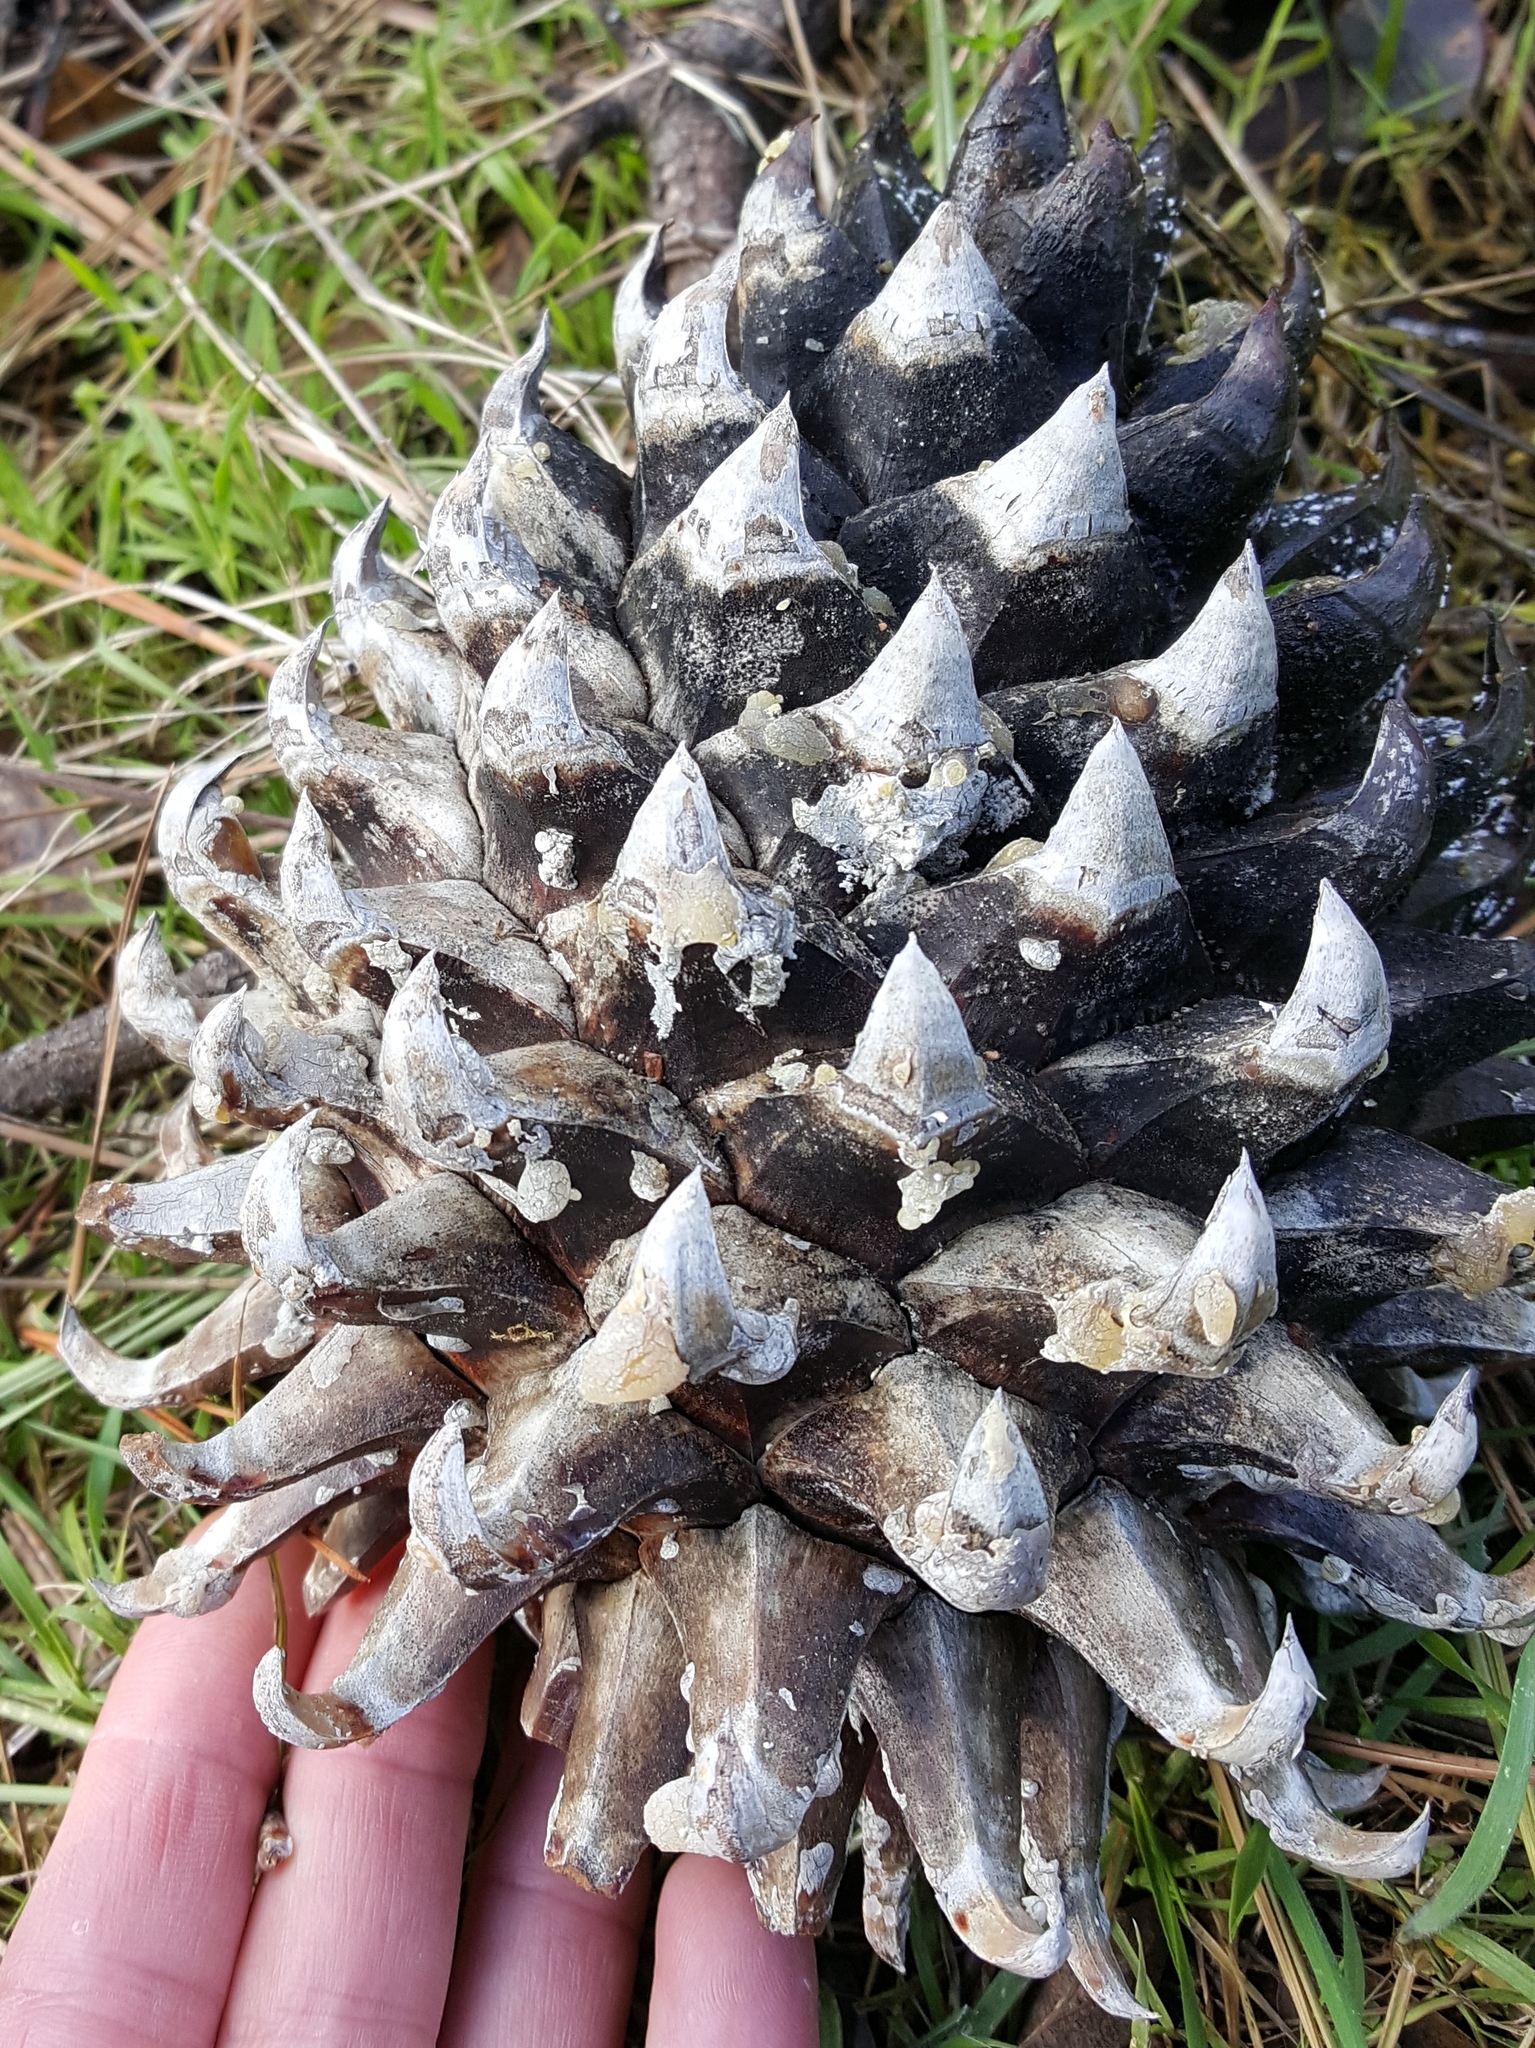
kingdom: Plantae
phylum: Tracheophyta
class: Pinopsida
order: Pinales
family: Pinaceae
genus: Pinus
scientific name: Pinus sabiniana
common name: Bull pine
